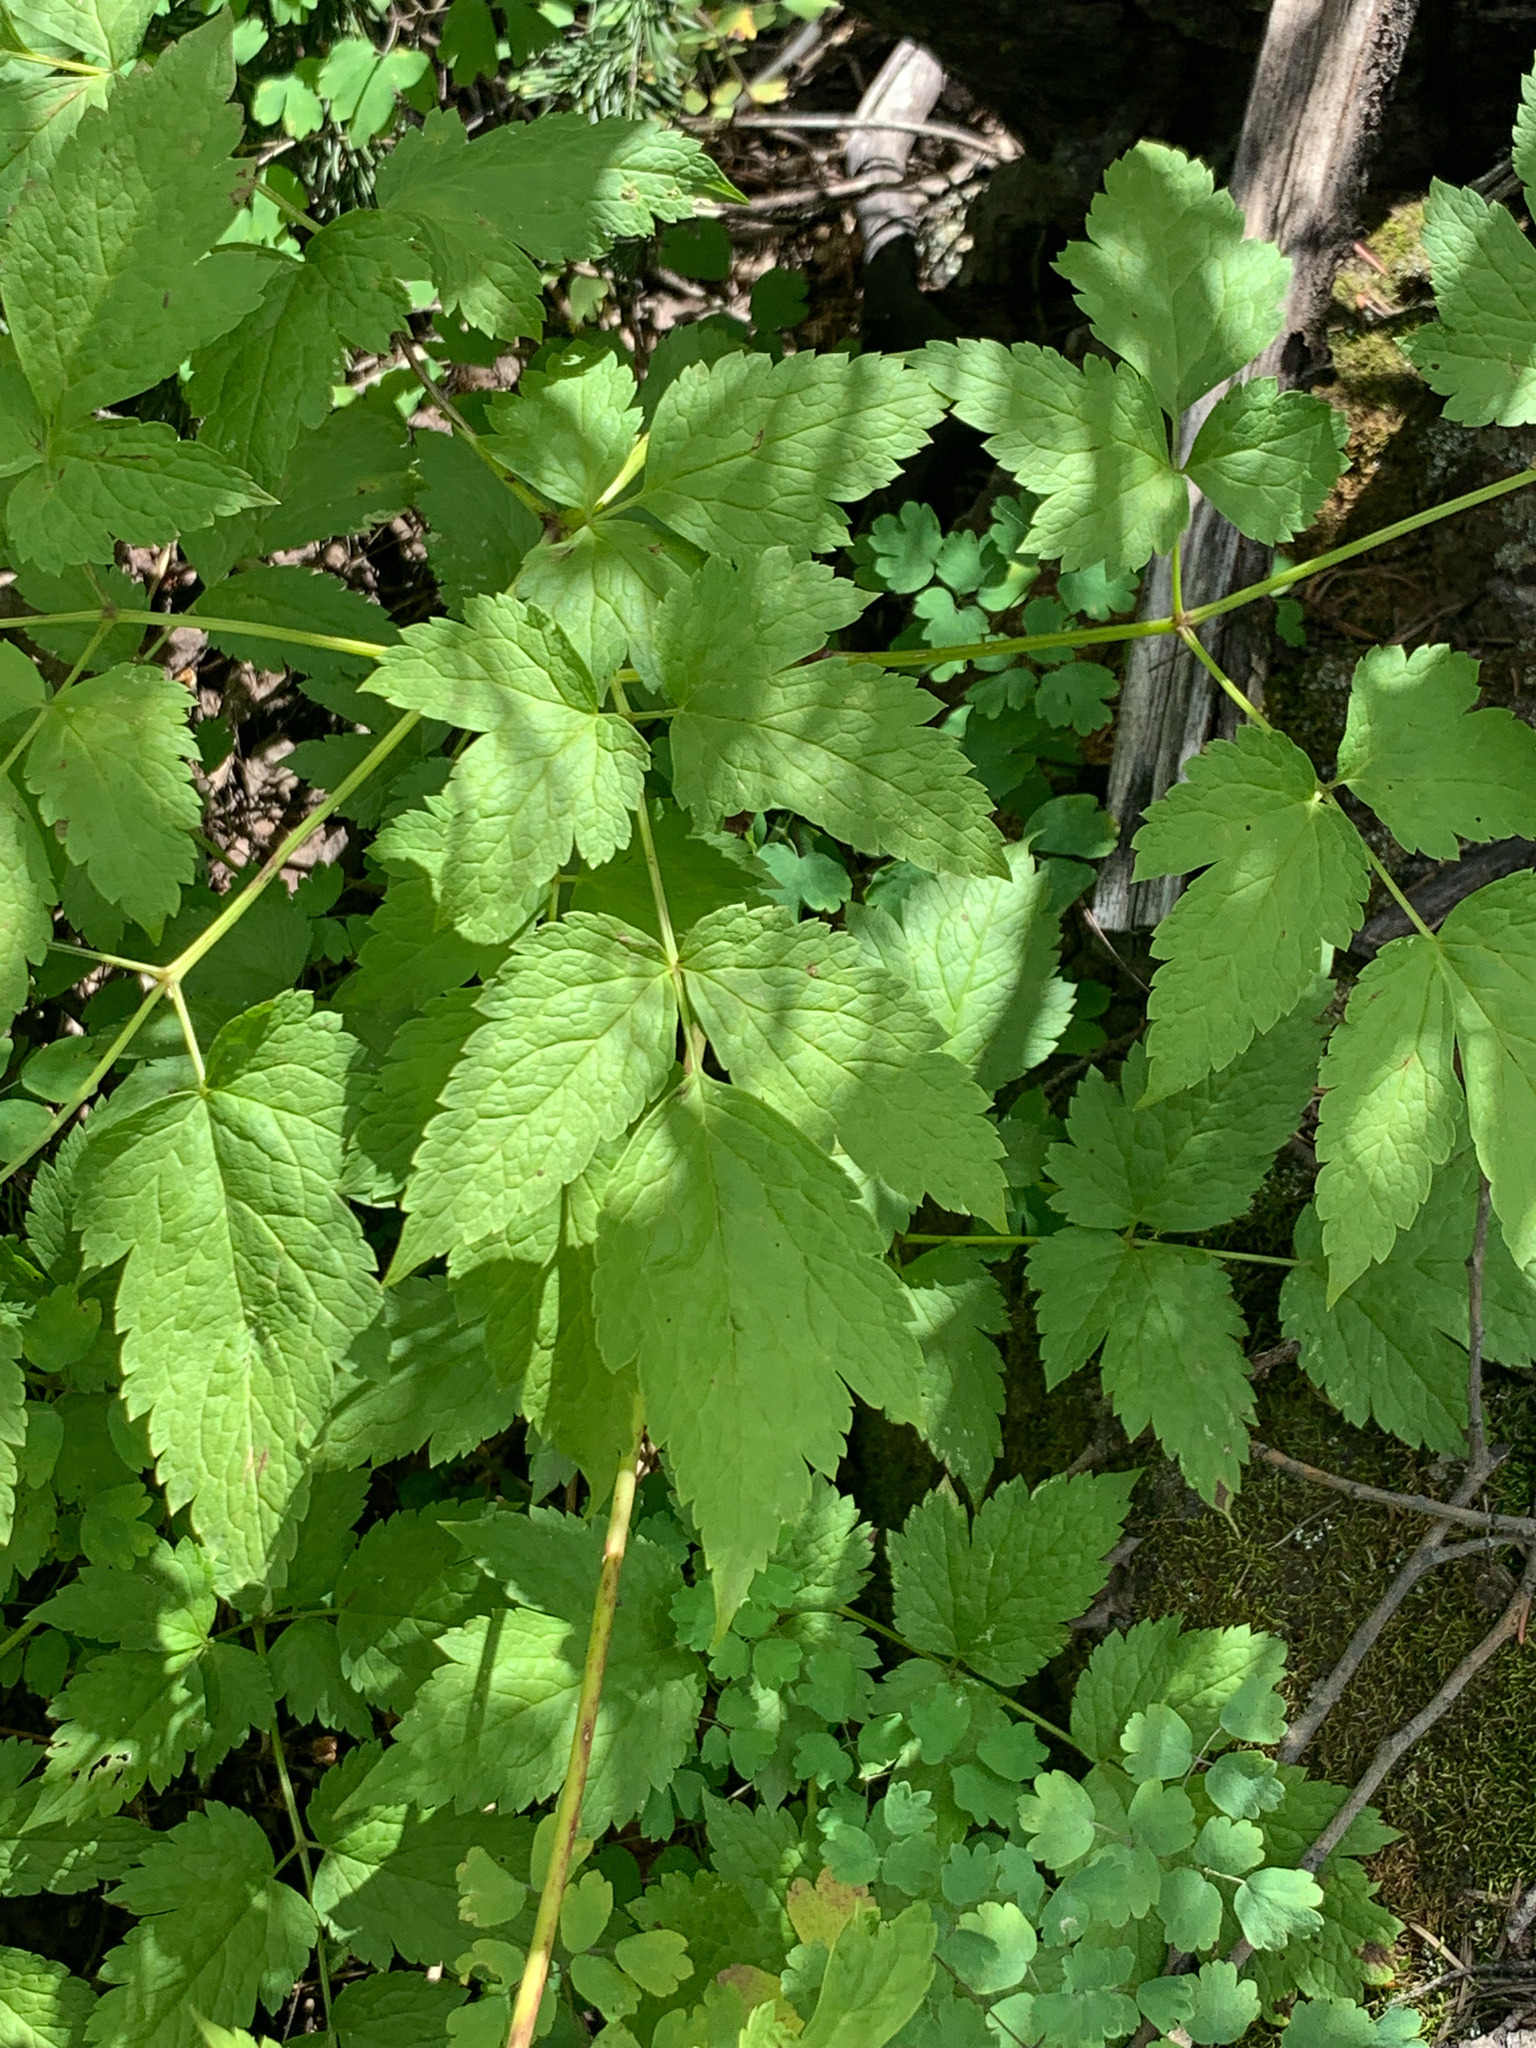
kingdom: Plantae
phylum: Tracheophyta
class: Magnoliopsida
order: Ranunculales
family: Ranunculaceae
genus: Actaea
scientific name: Actaea rubra
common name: Red baneberry
